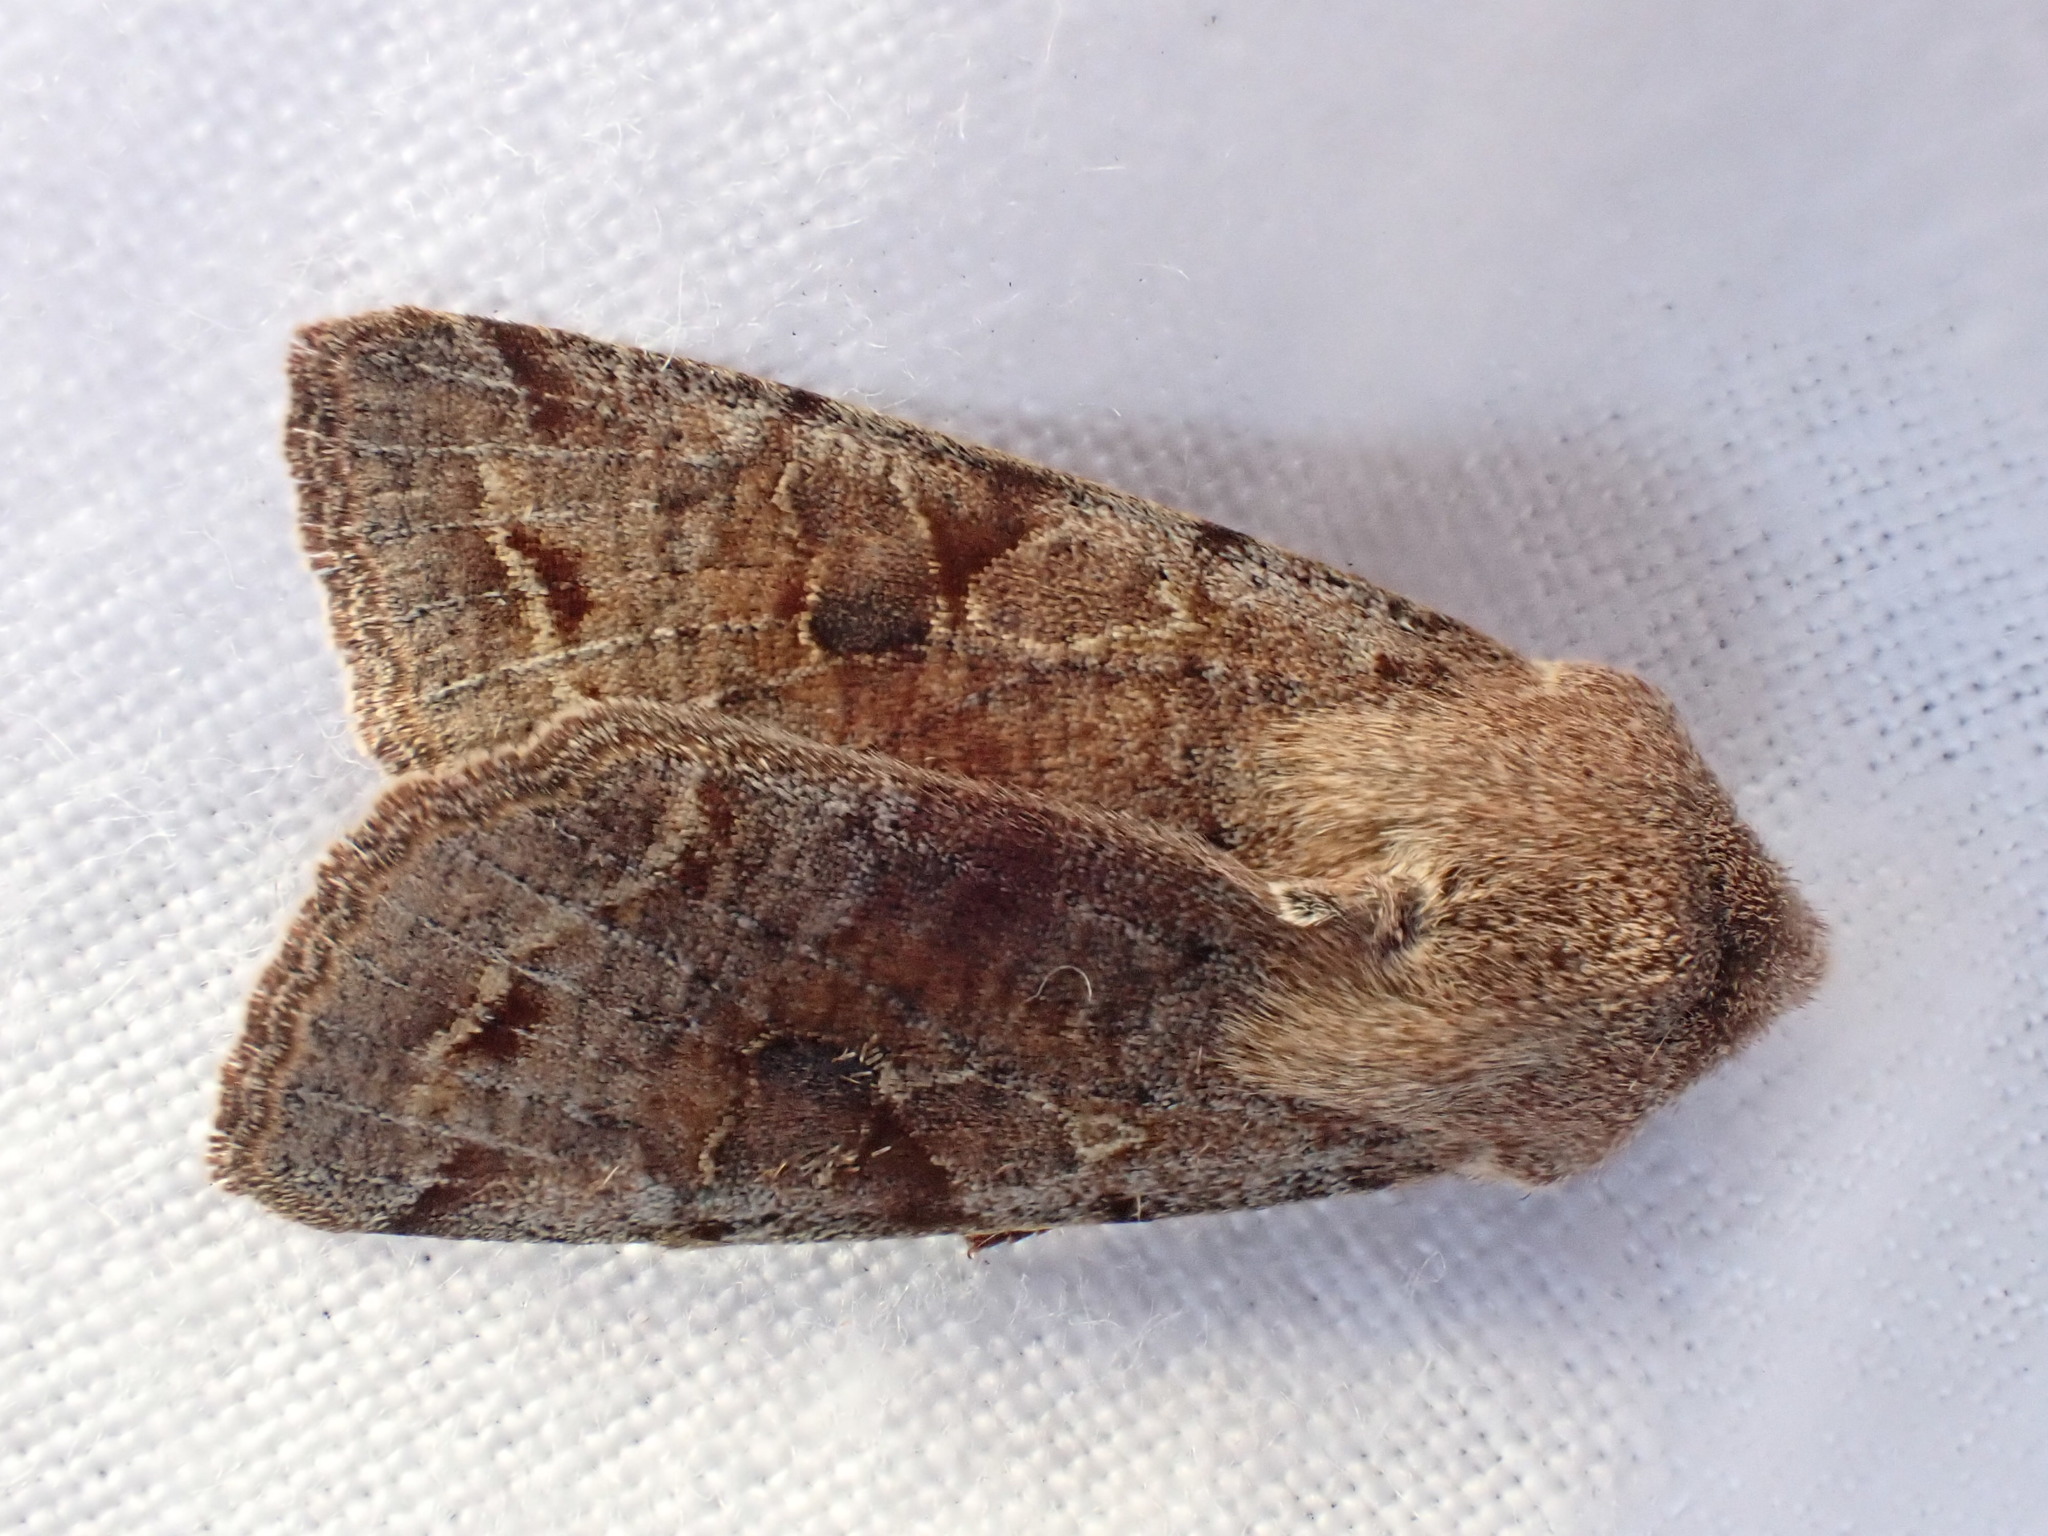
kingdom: Animalia
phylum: Arthropoda
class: Insecta
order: Lepidoptera
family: Noctuidae
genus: Orthosia
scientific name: Orthosia incerta
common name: Clouded drab
